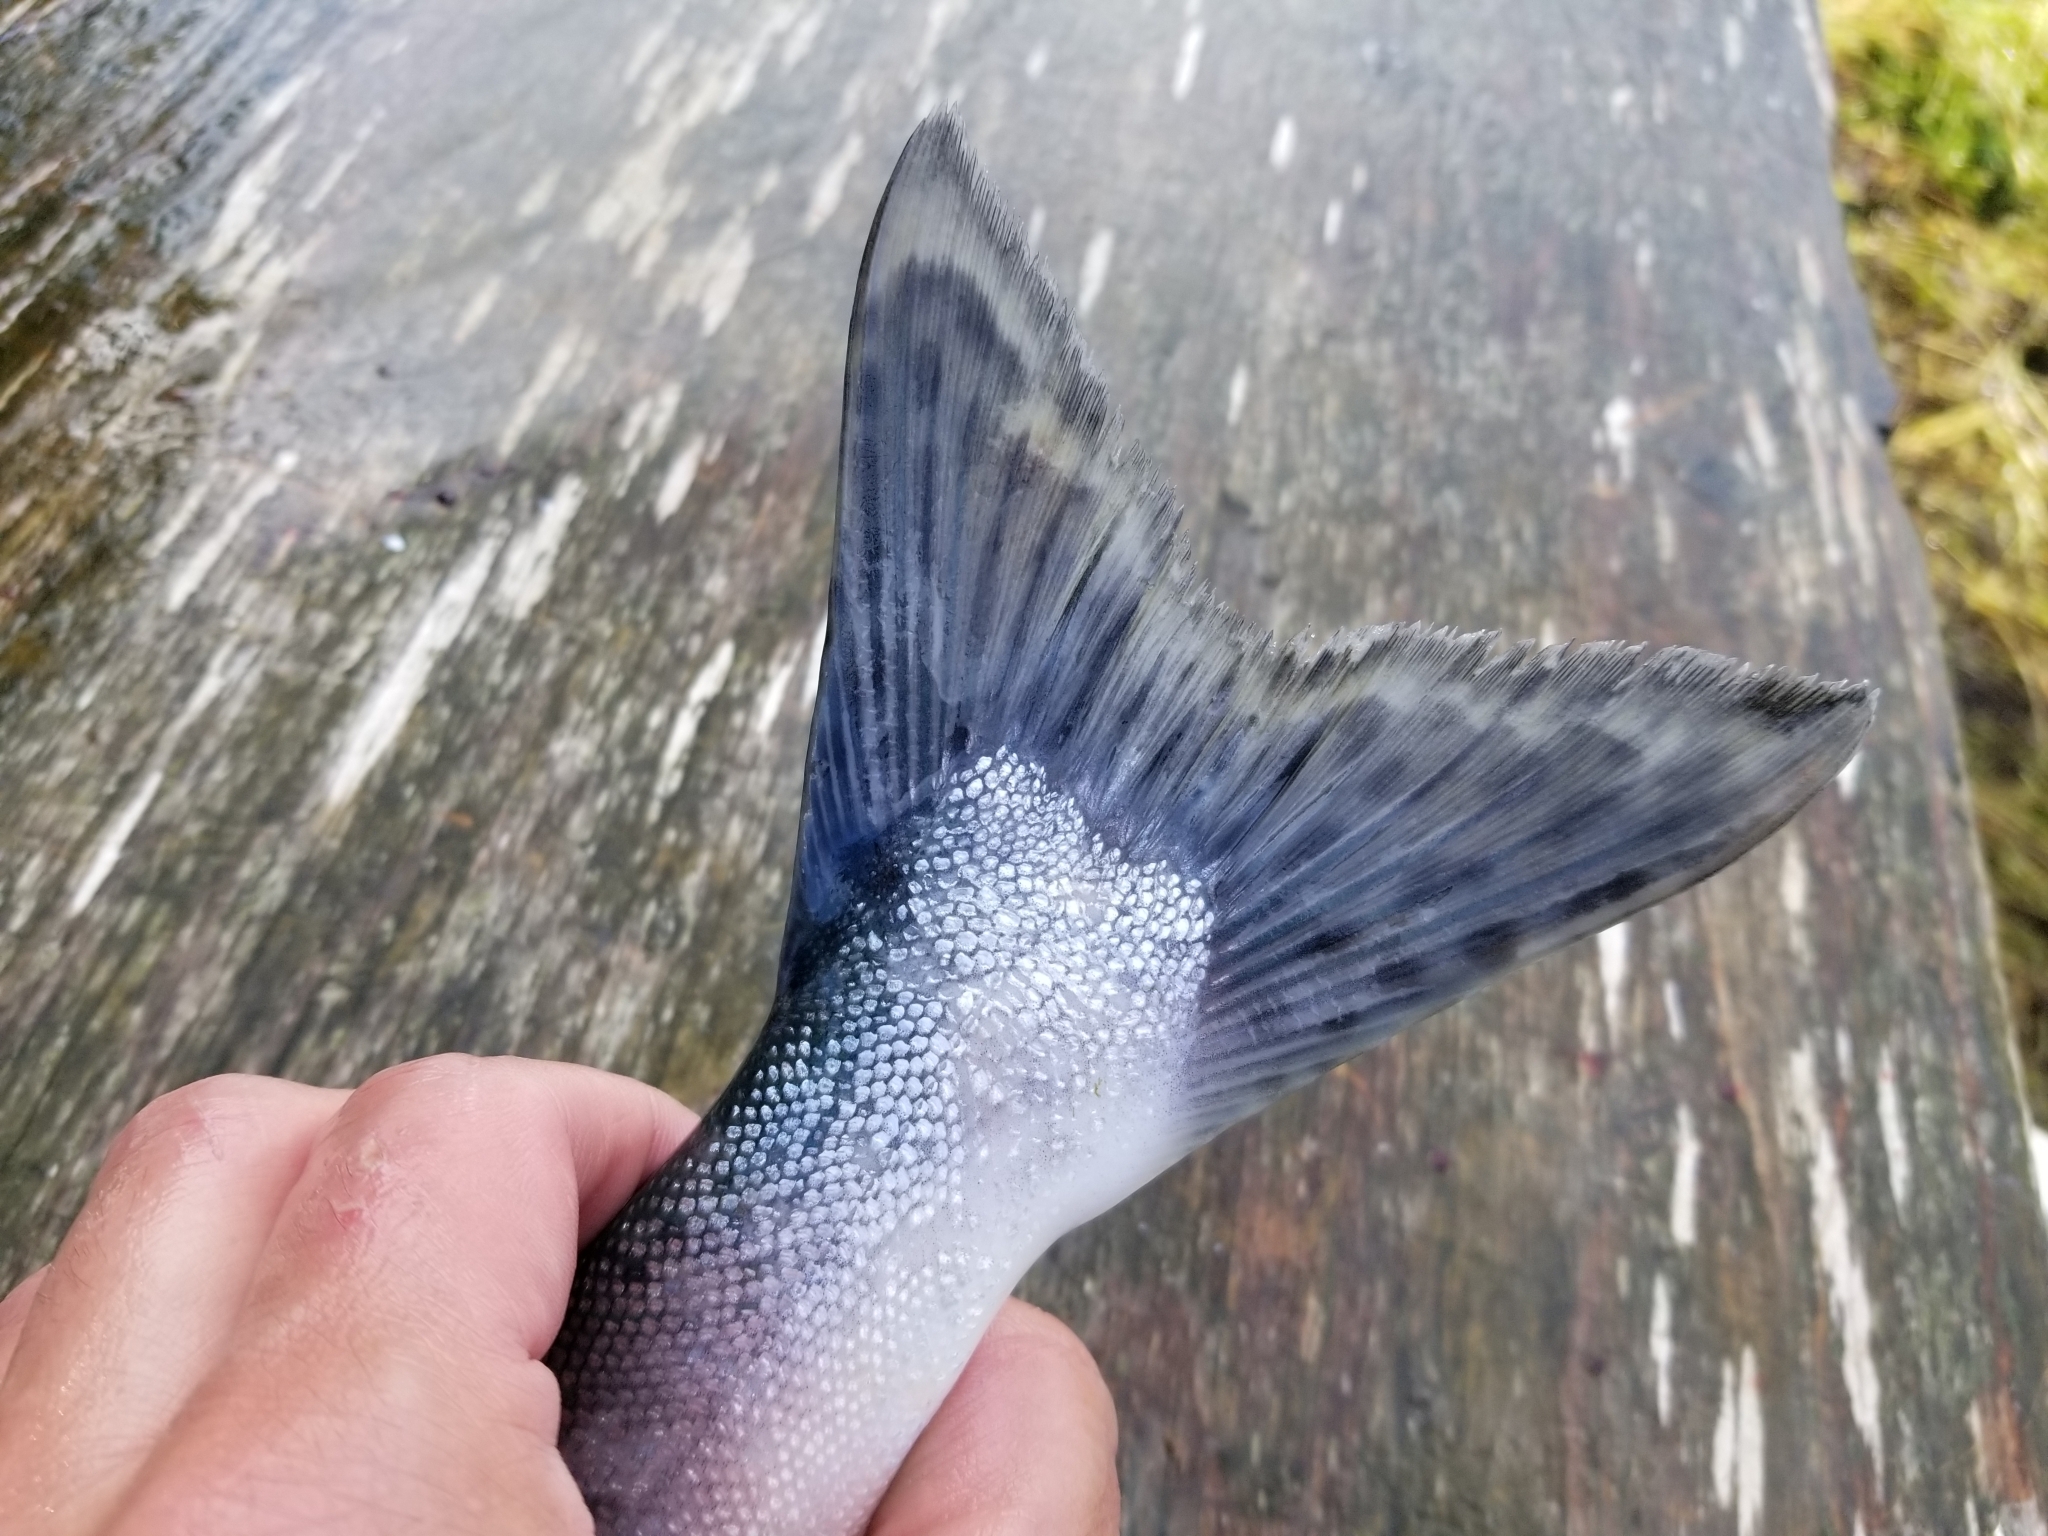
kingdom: Animalia
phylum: Chordata
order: Salmoniformes
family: Salmonidae
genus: Oncorhynchus
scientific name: Oncorhynchus gorbuscha
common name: Humpback salmon
